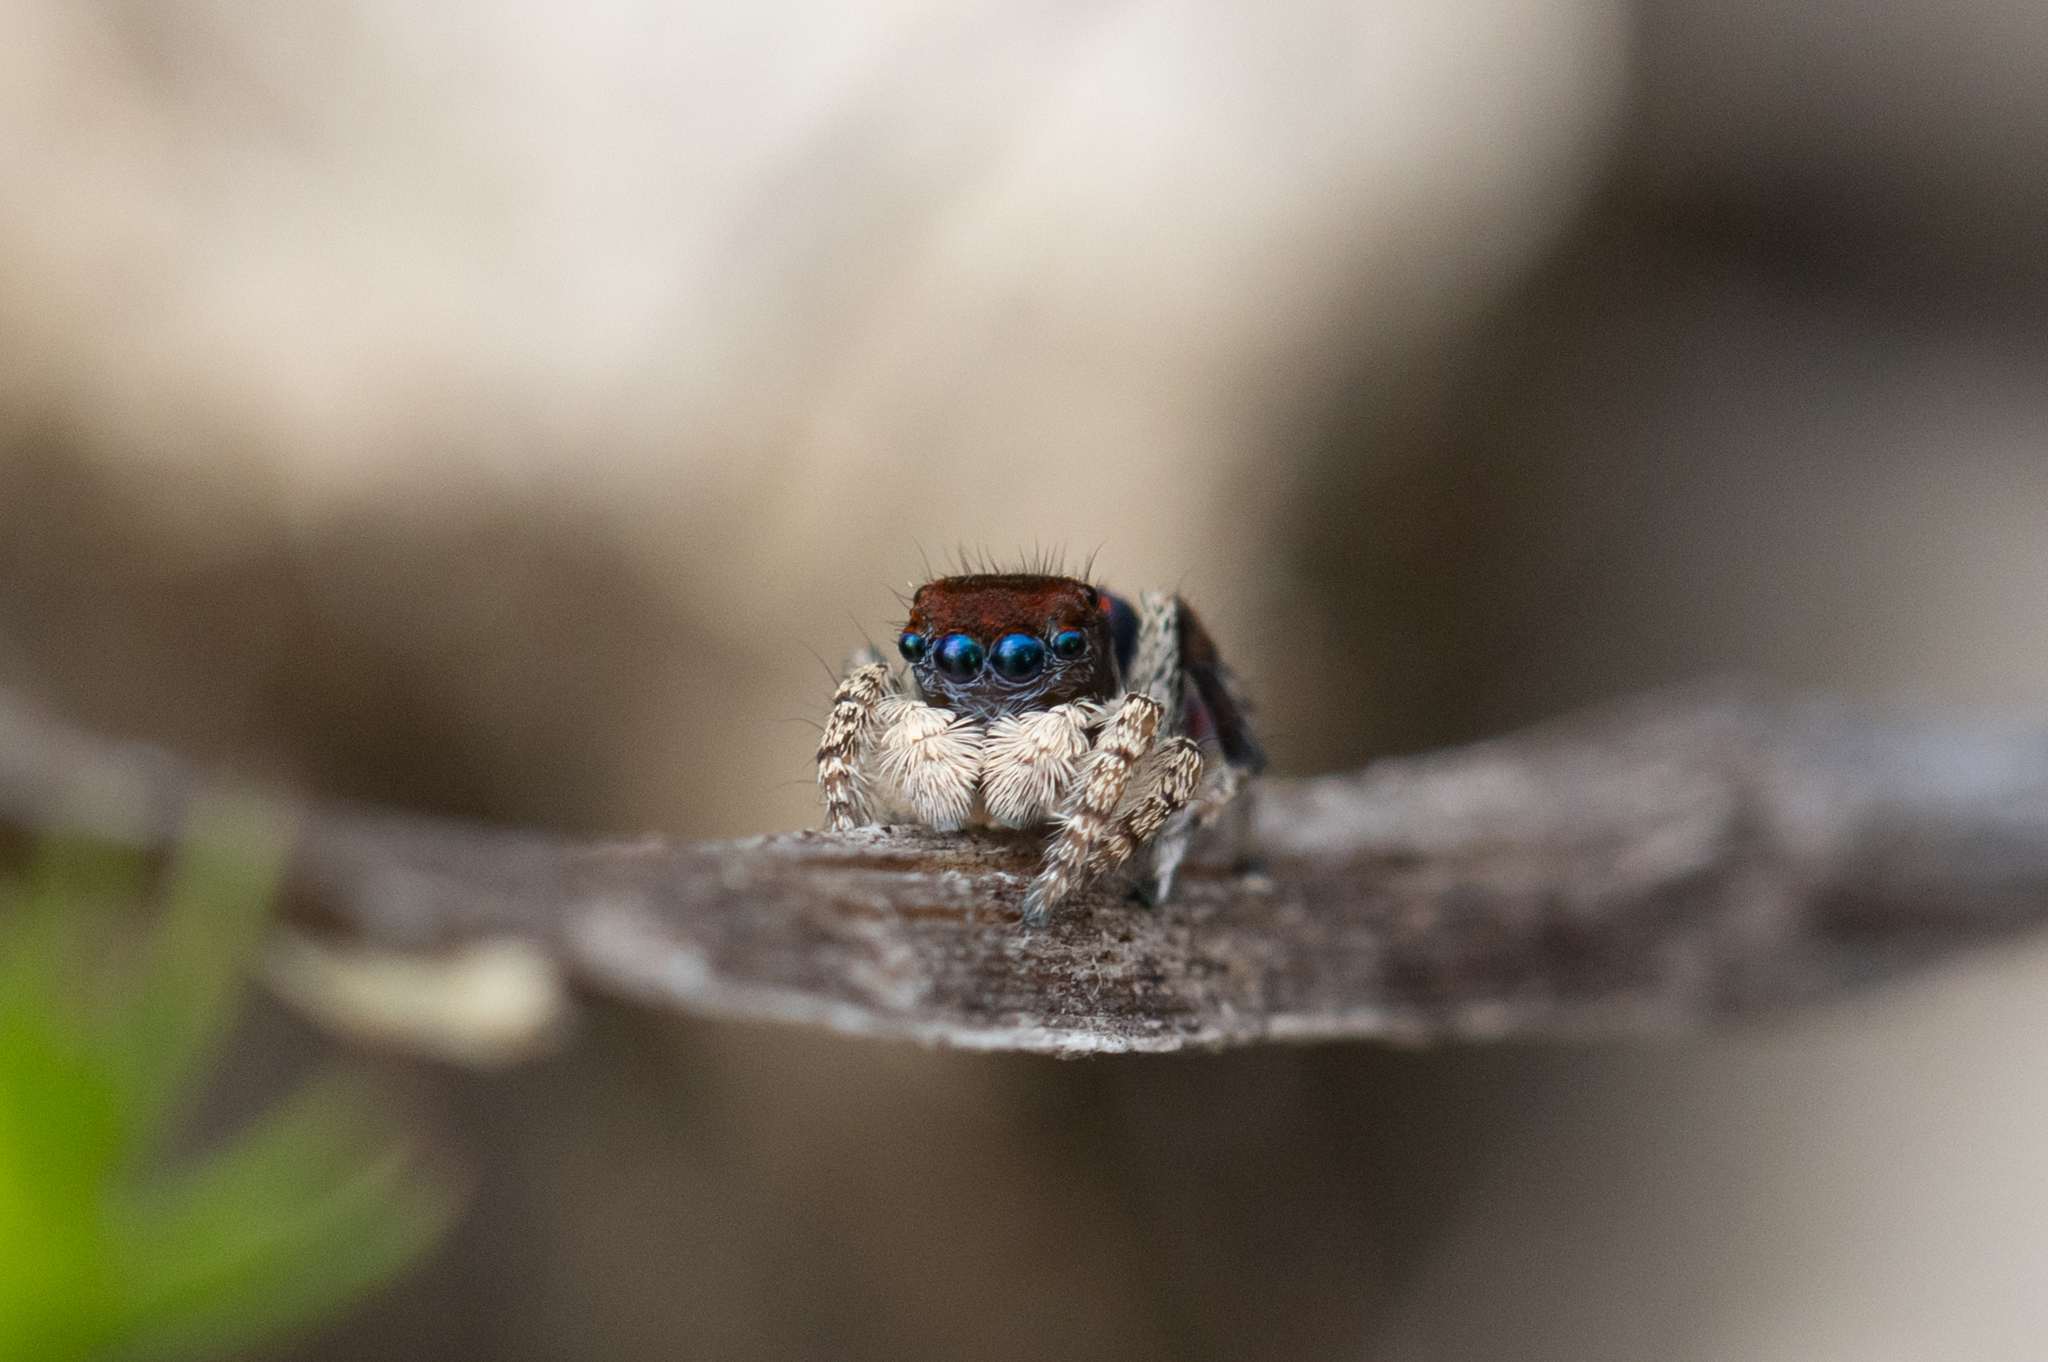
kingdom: Animalia
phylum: Arthropoda
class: Arachnida
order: Araneae
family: Salticidae
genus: Maratus
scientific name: Maratus karrie
